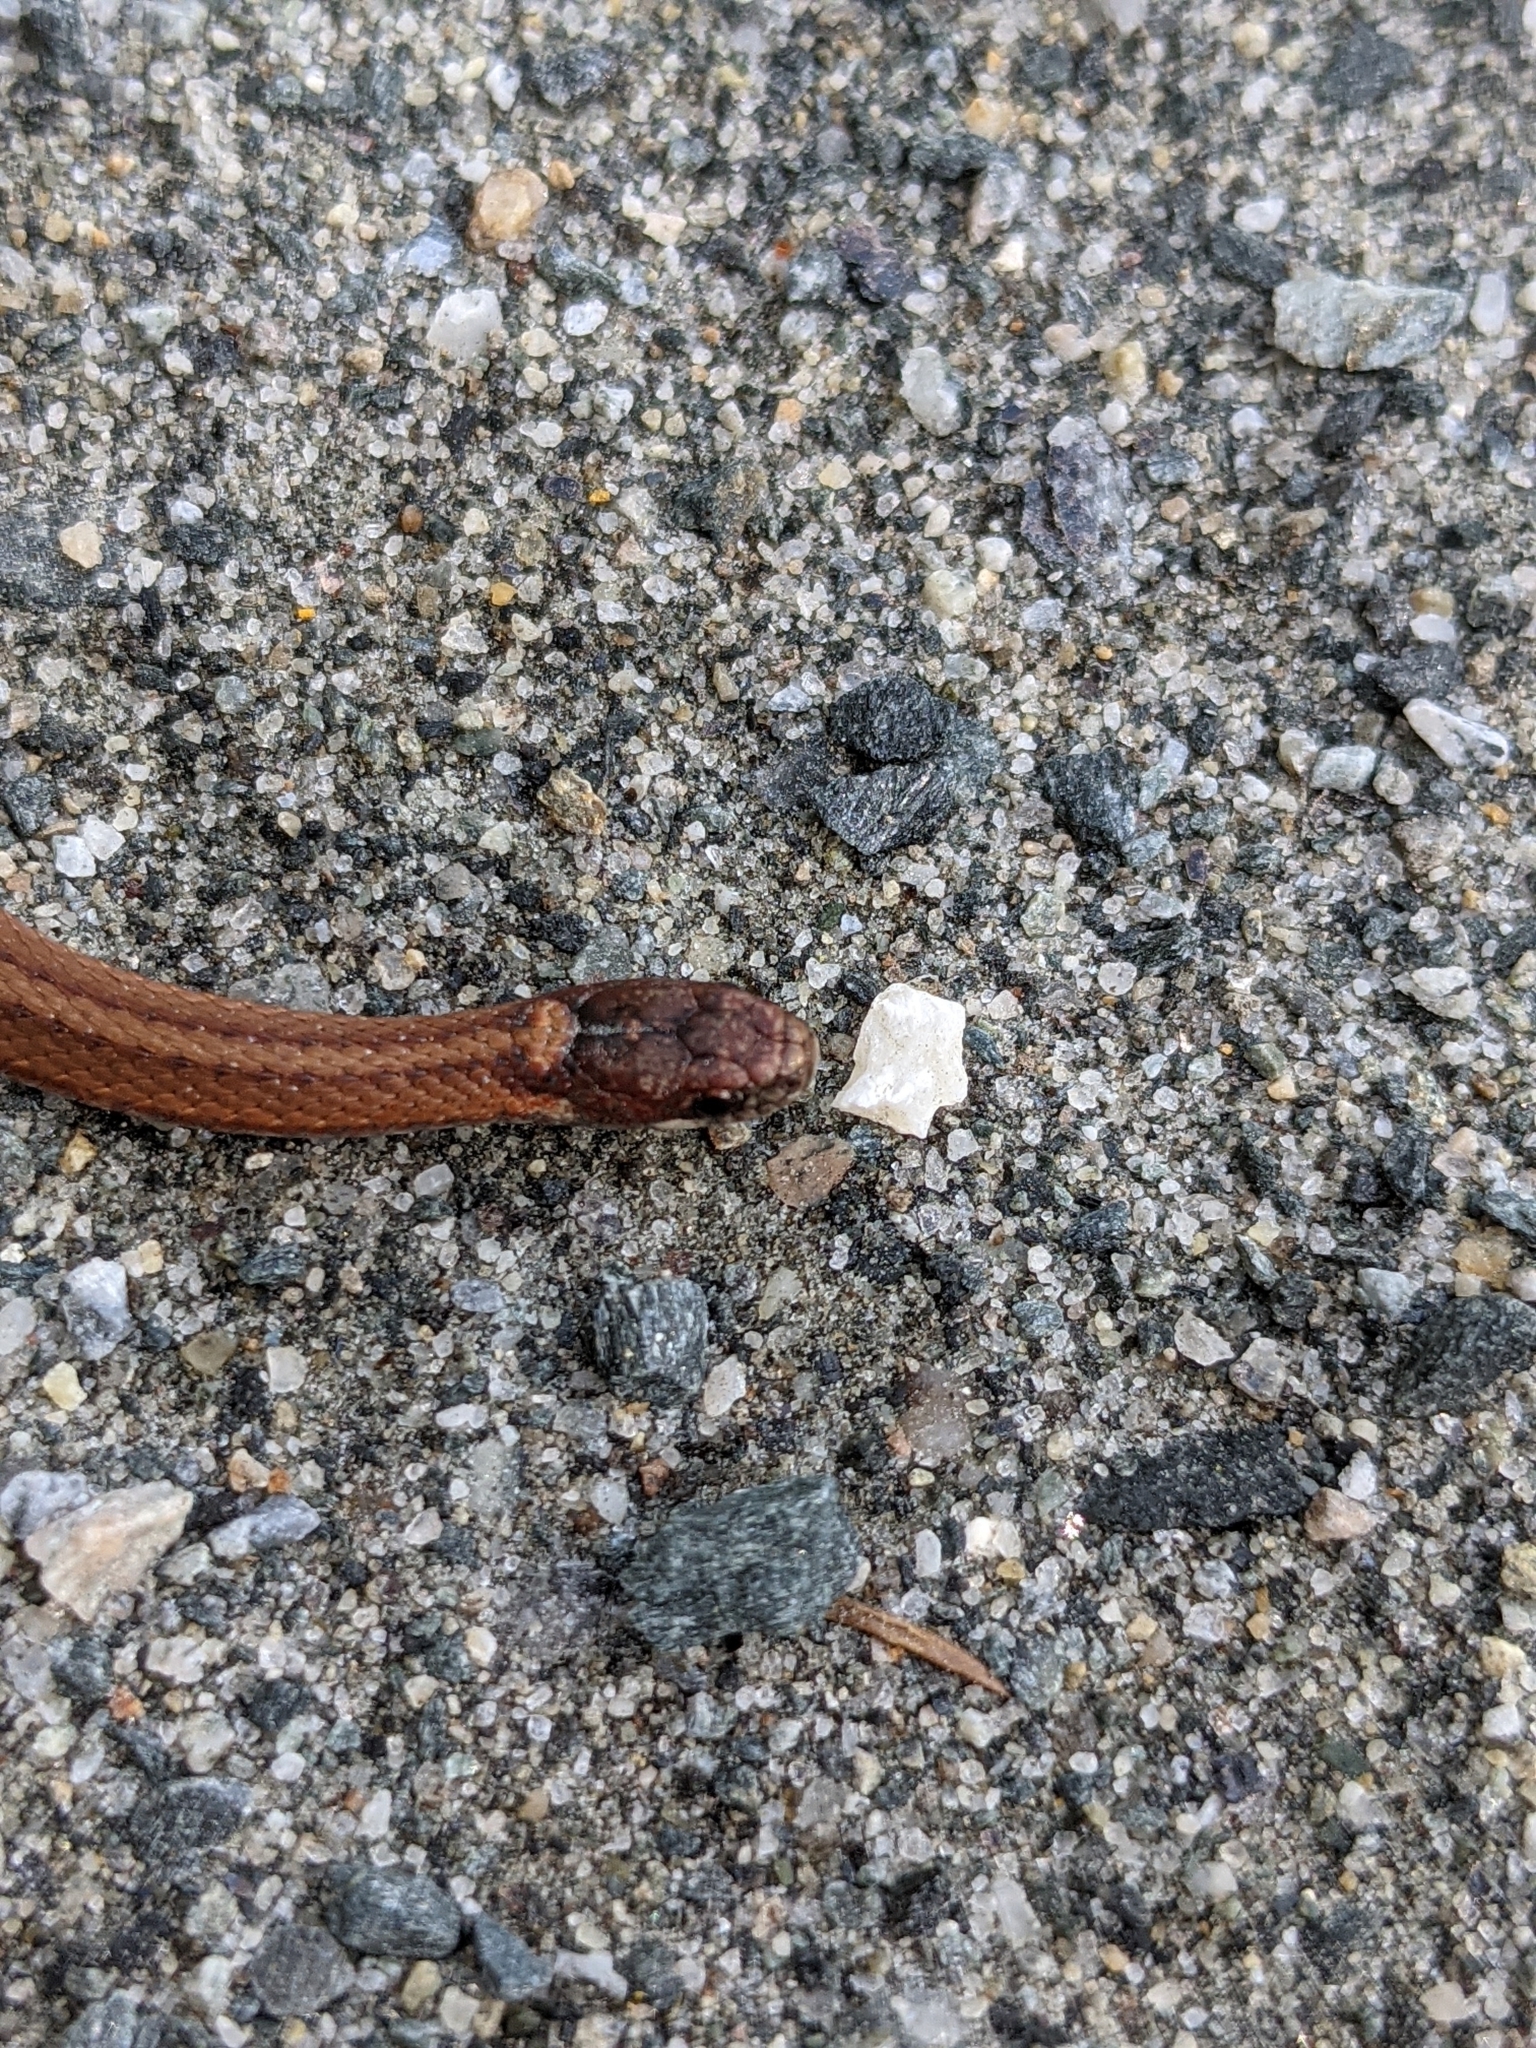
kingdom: Animalia
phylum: Chordata
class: Squamata
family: Colubridae
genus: Storeria
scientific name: Storeria occipitomaculata
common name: Redbelly snake
